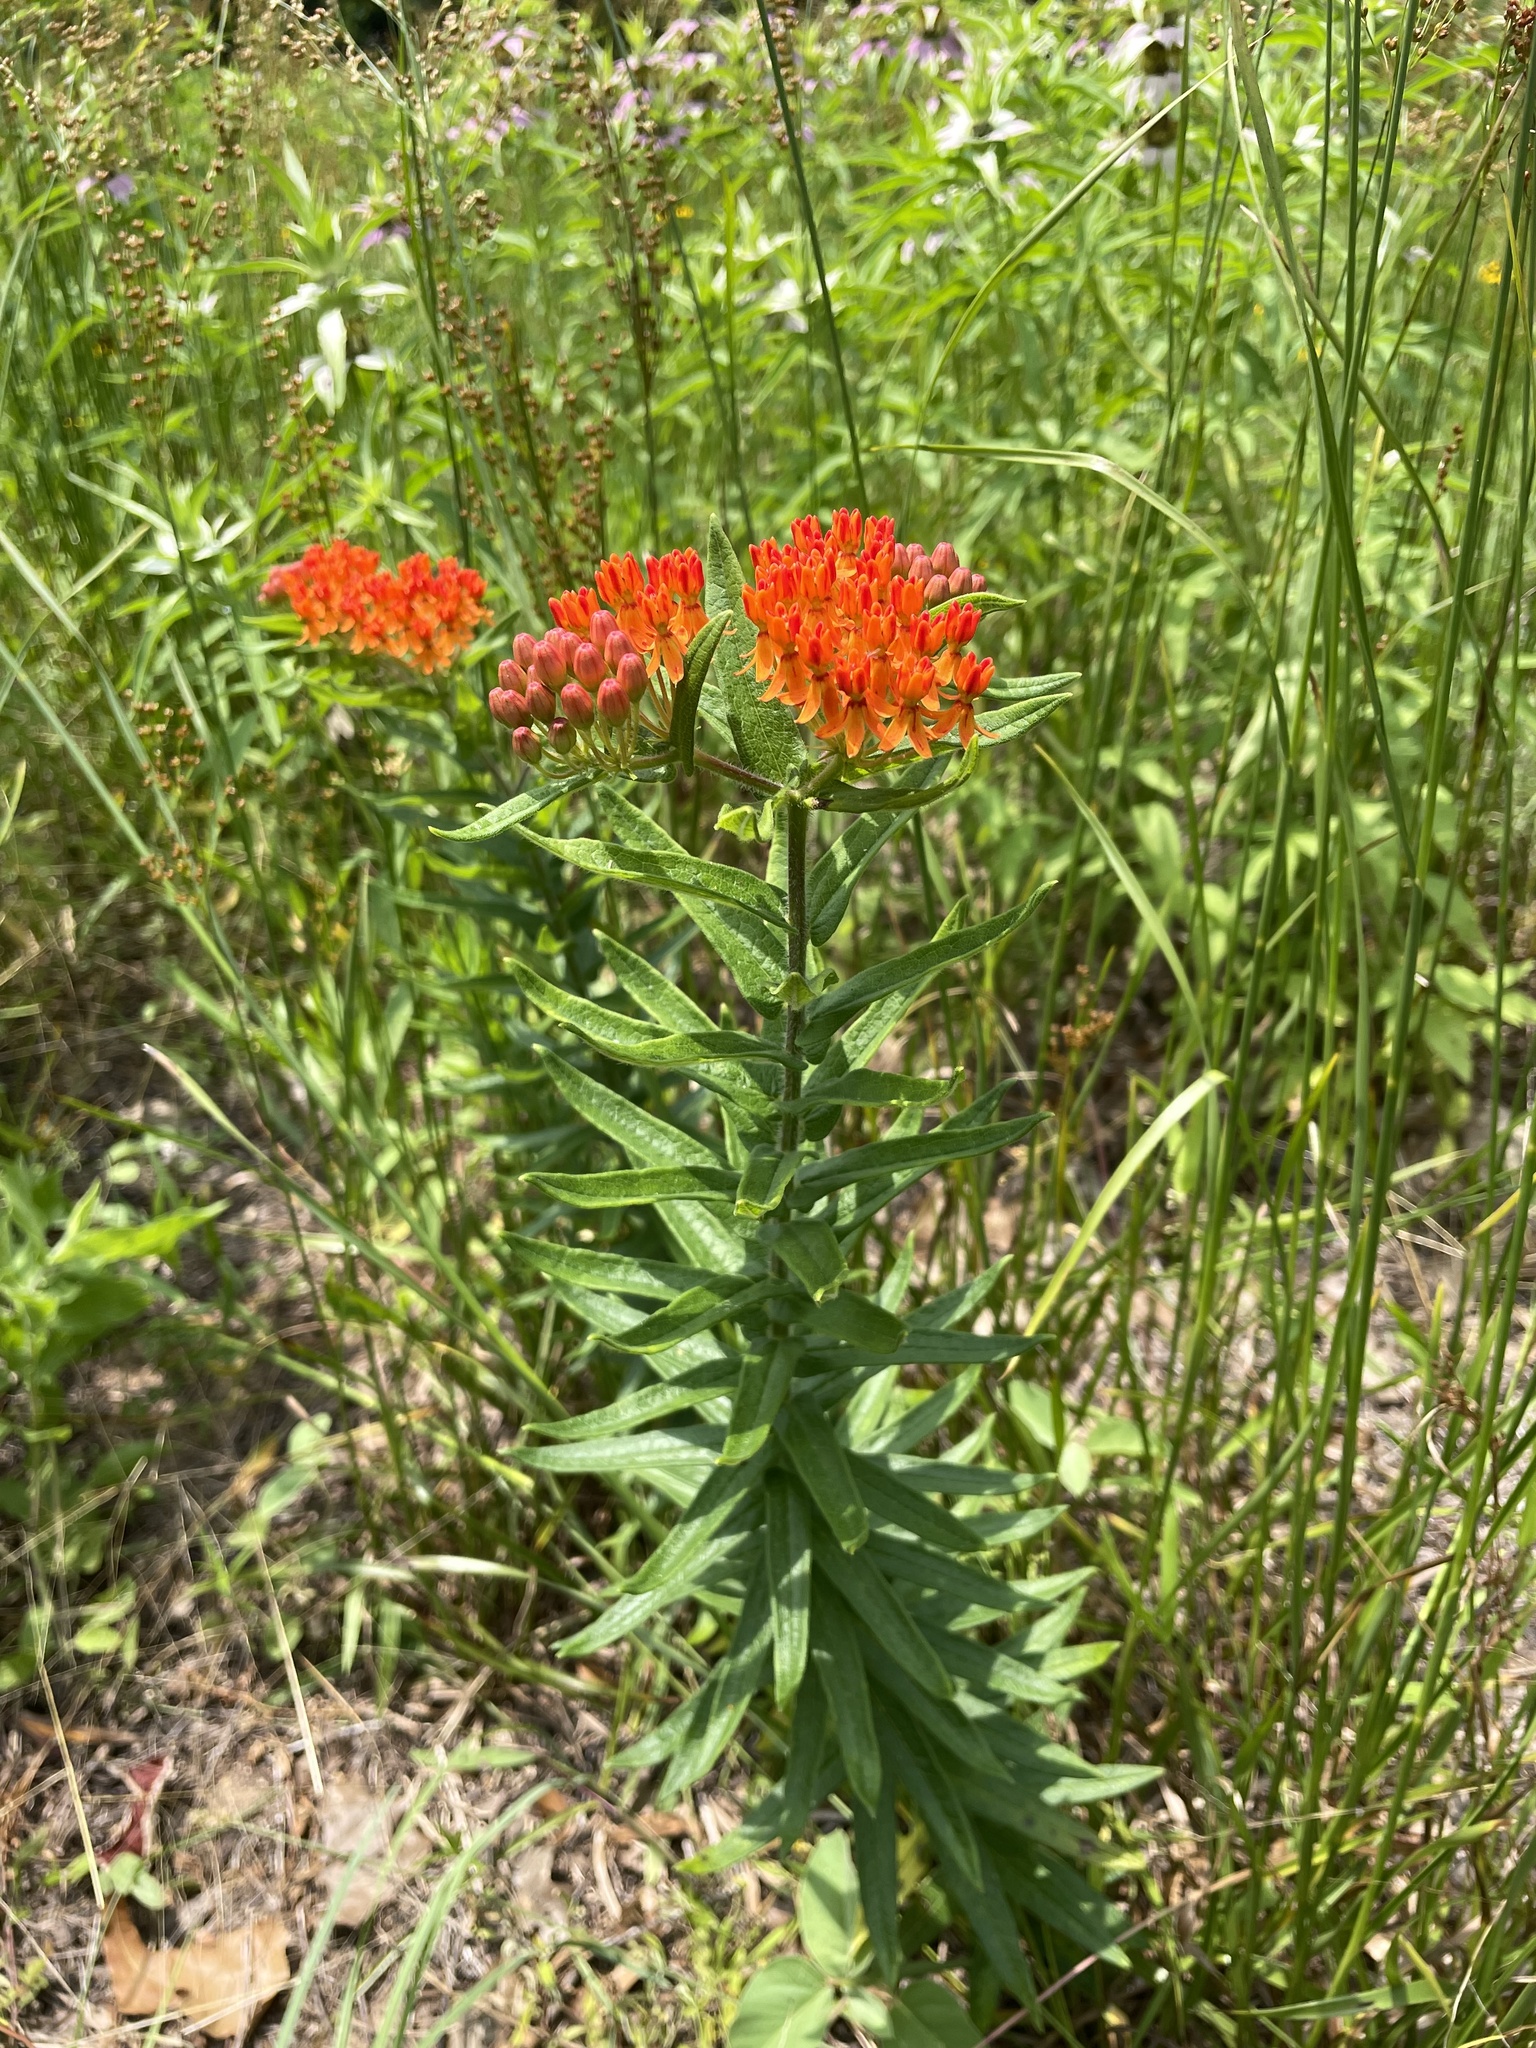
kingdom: Plantae
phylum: Tracheophyta
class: Magnoliopsida
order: Gentianales
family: Apocynaceae
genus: Asclepias
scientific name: Asclepias tuberosa
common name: Butterfly milkweed
